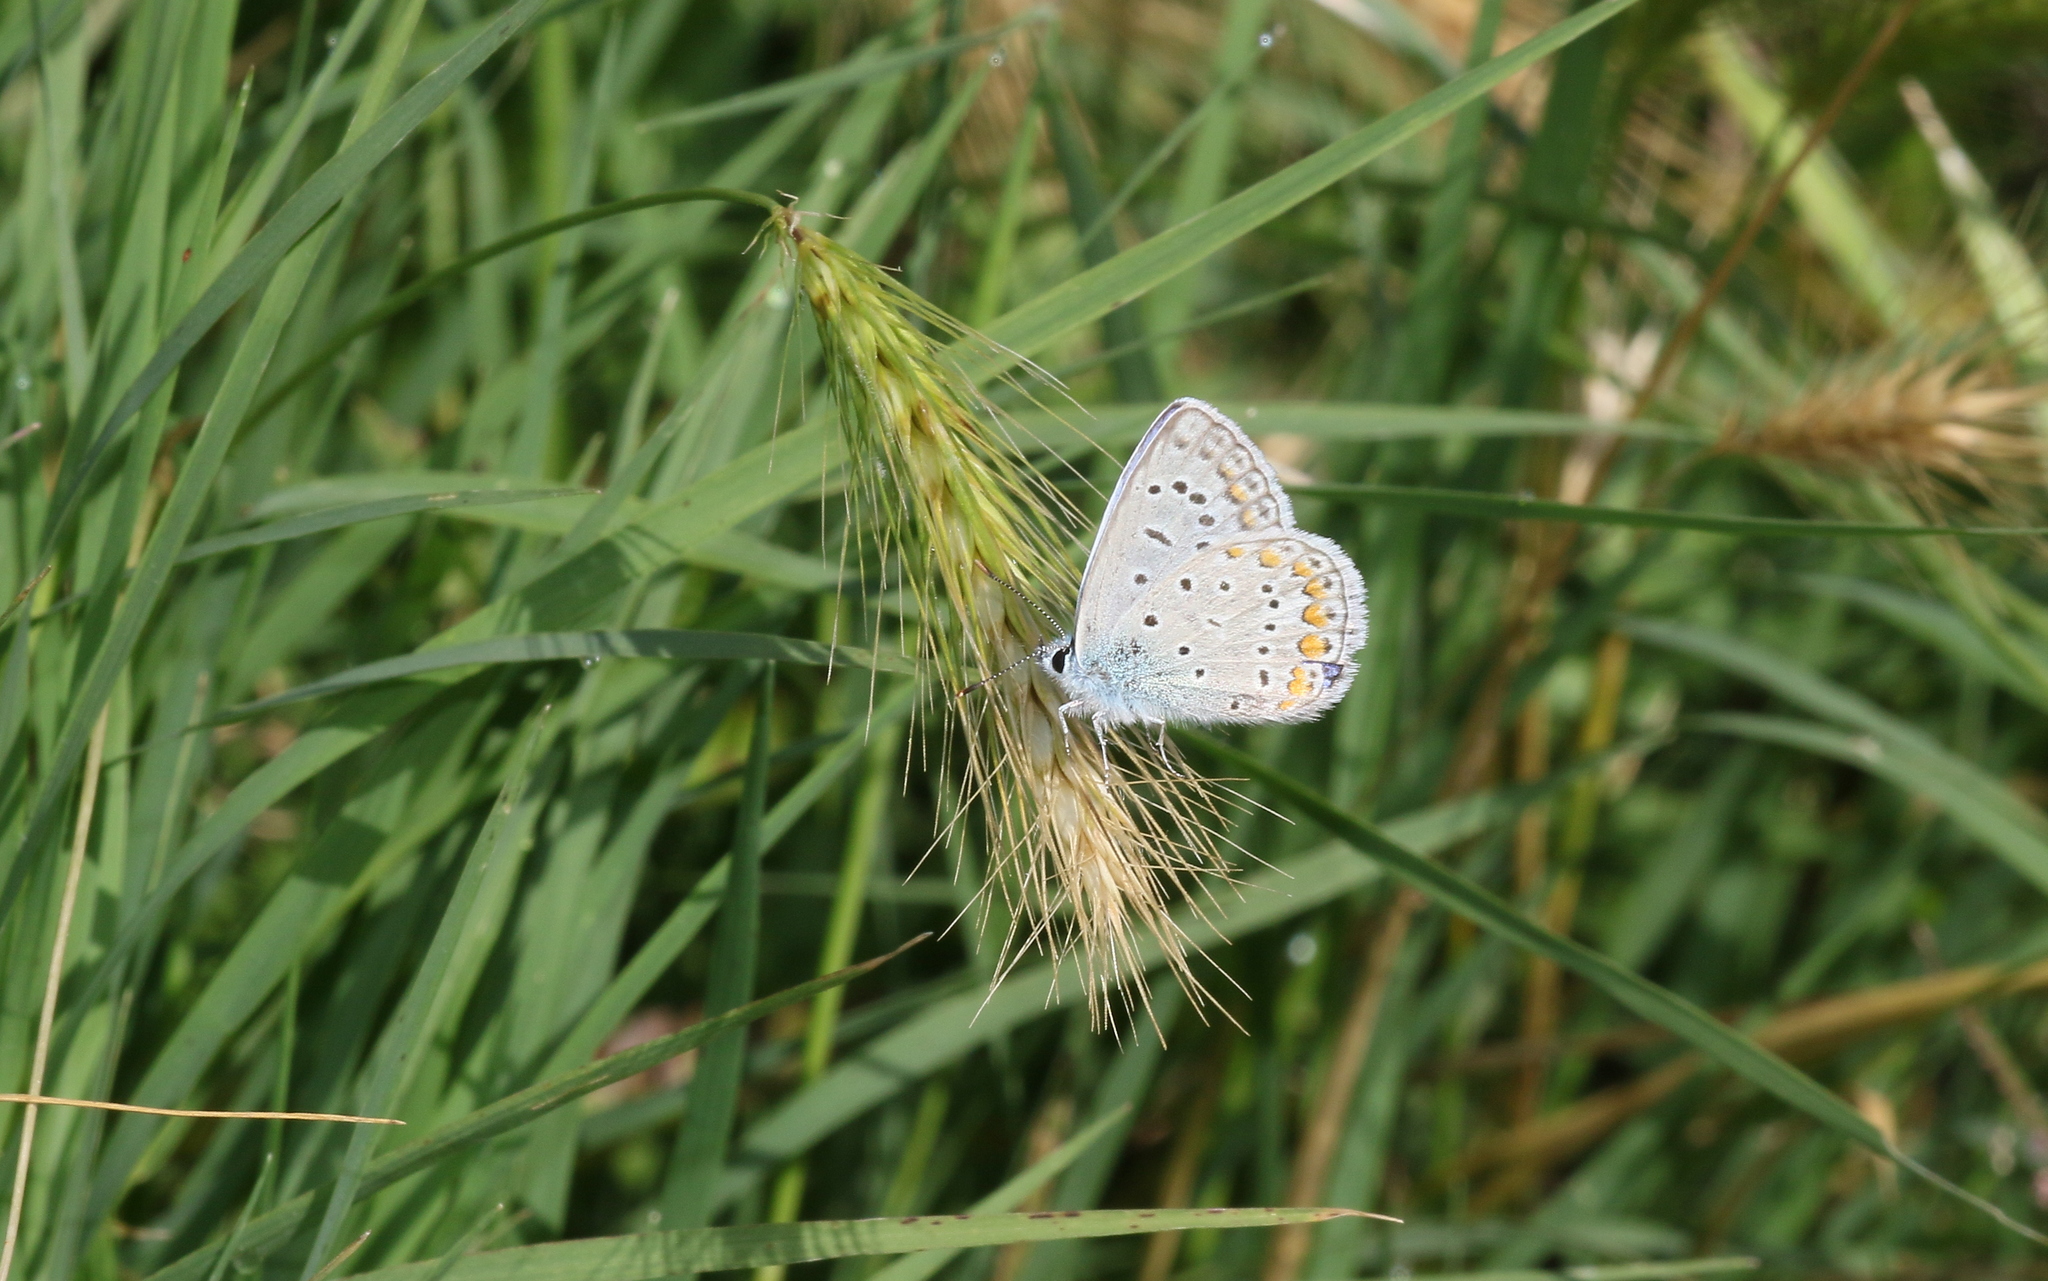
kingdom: Animalia
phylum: Arthropoda
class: Insecta
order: Lepidoptera
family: Lycaenidae
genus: Polyommatus
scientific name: Polyommatus icarus
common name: Common blue
